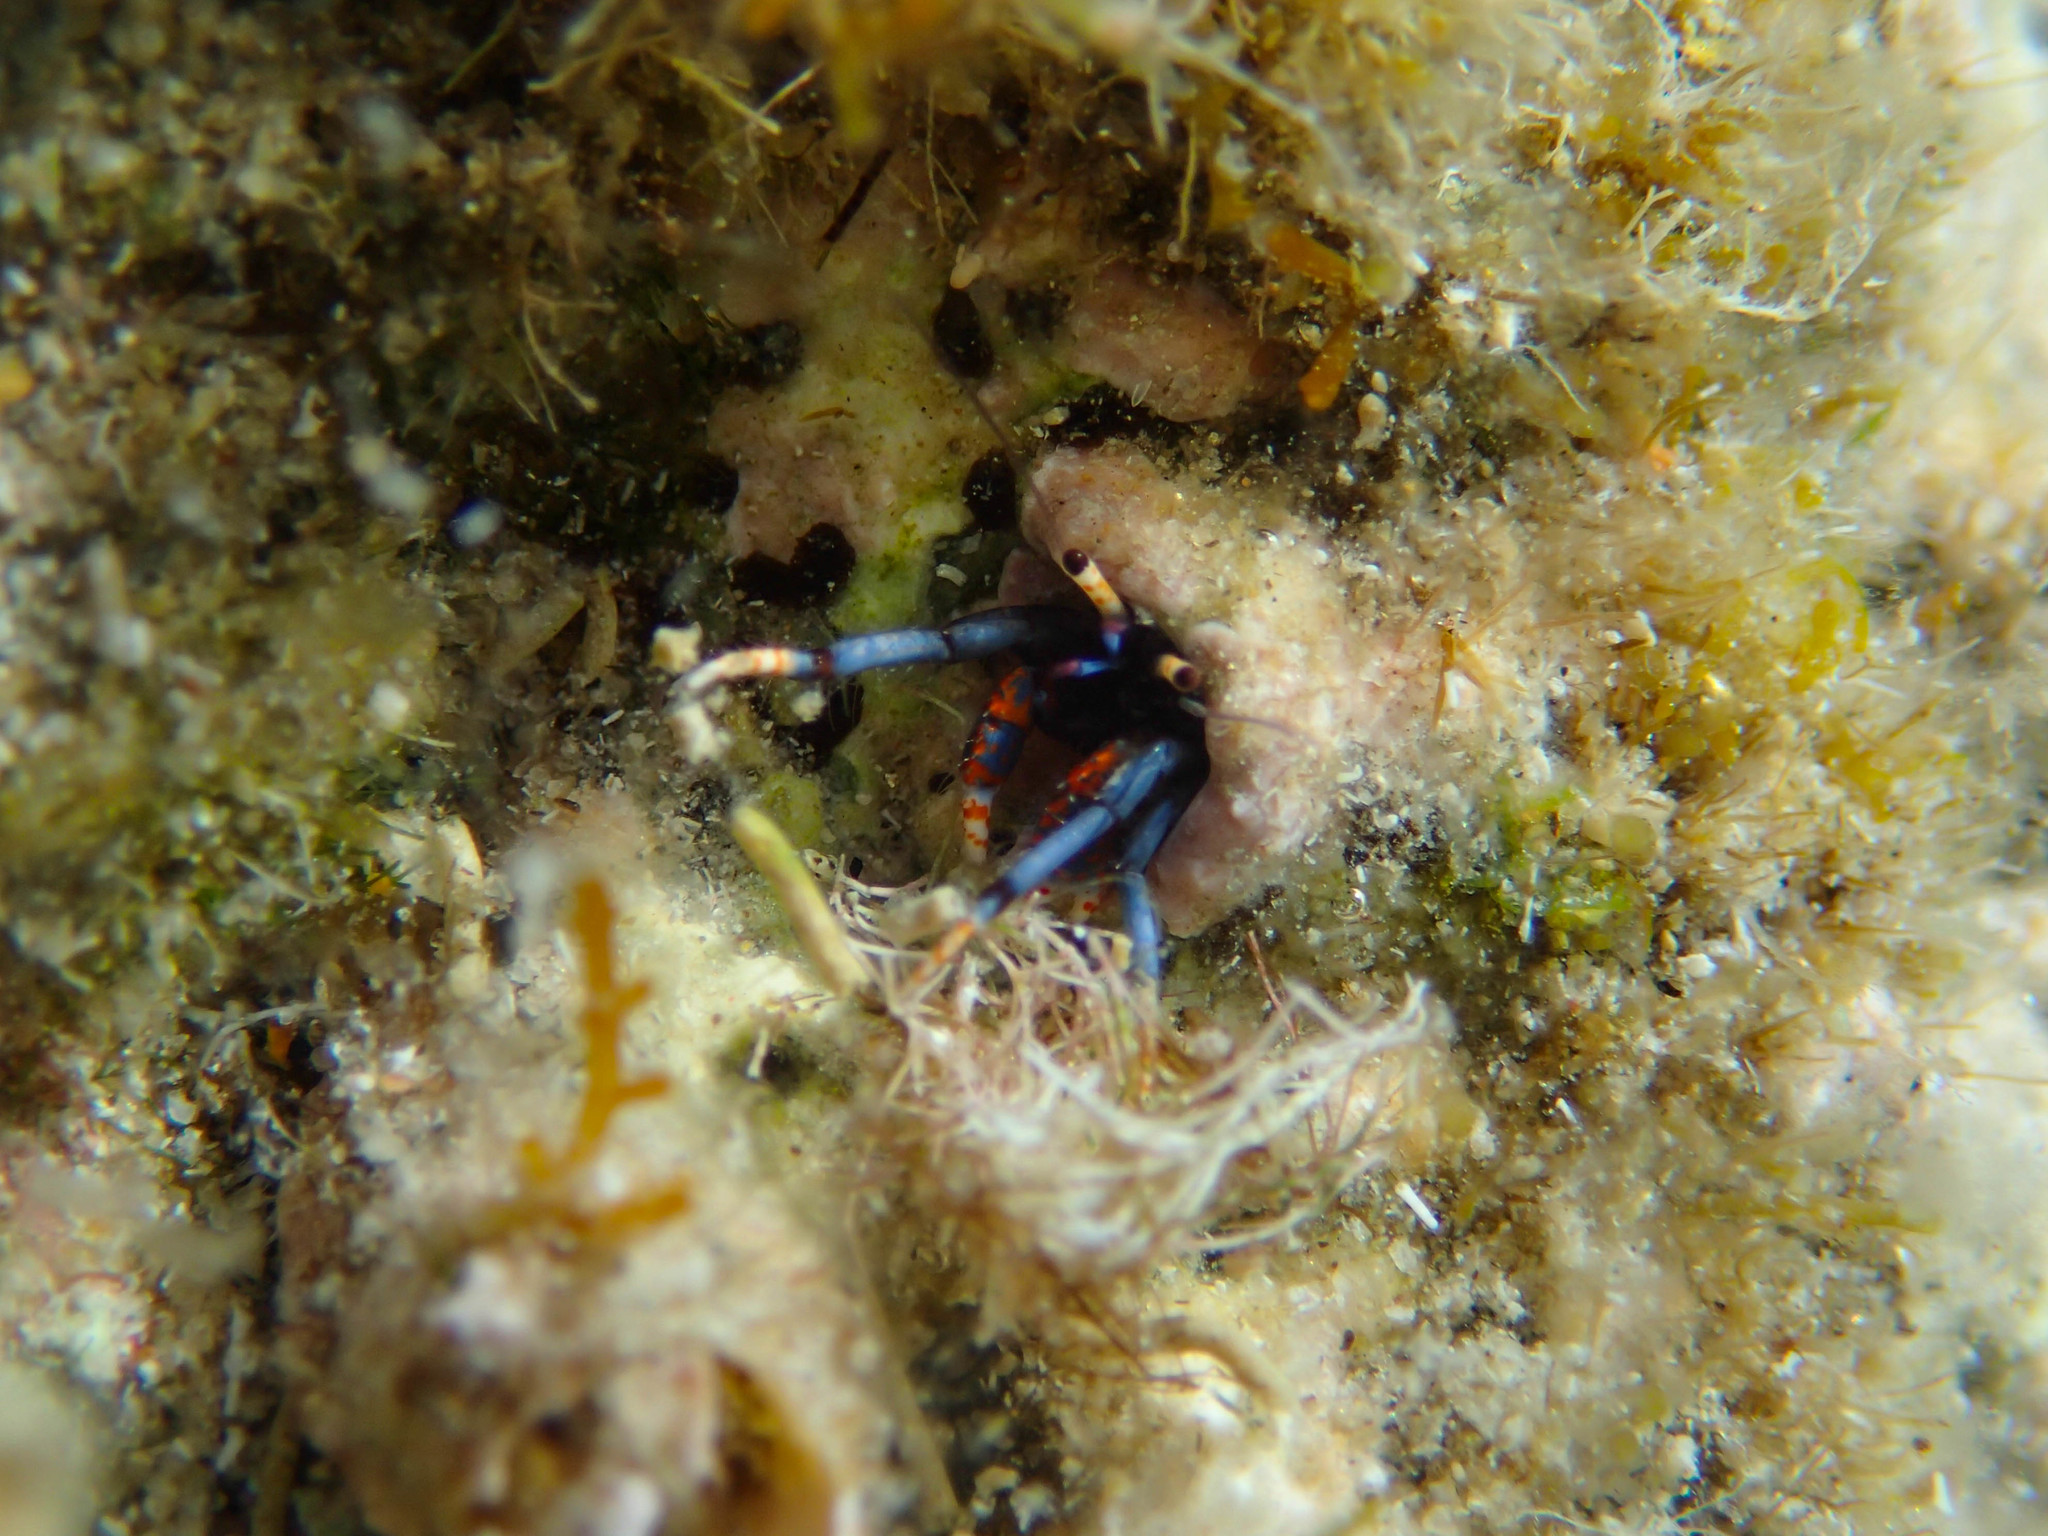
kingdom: Animalia
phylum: Arthropoda
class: Malacostraca
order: Decapoda
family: Diogenidae
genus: Calcinus
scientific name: Calcinus tubularis
